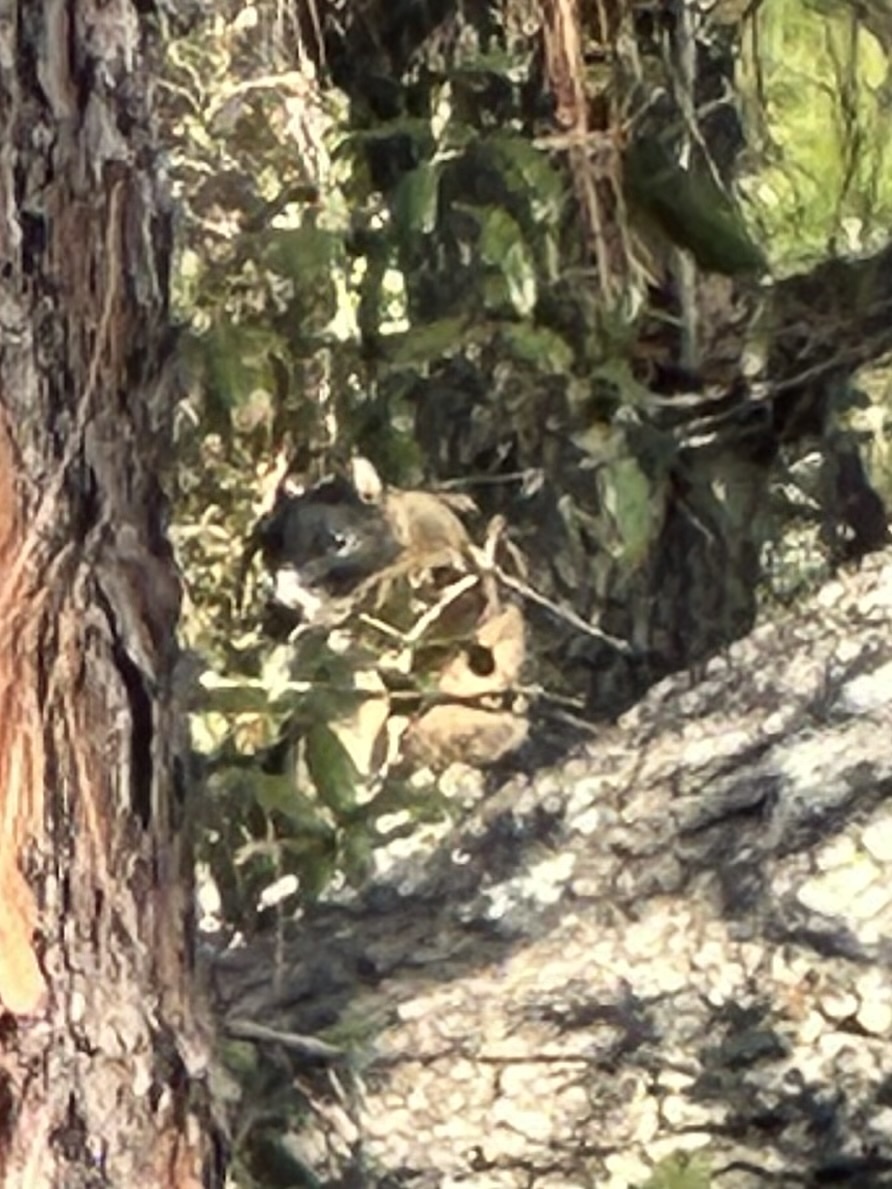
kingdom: Animalia
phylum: Chordata
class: Mammalia
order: Rodentia
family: Sciuridae
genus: Sciurus
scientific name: Sciurus niger
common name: Fox squirrel
